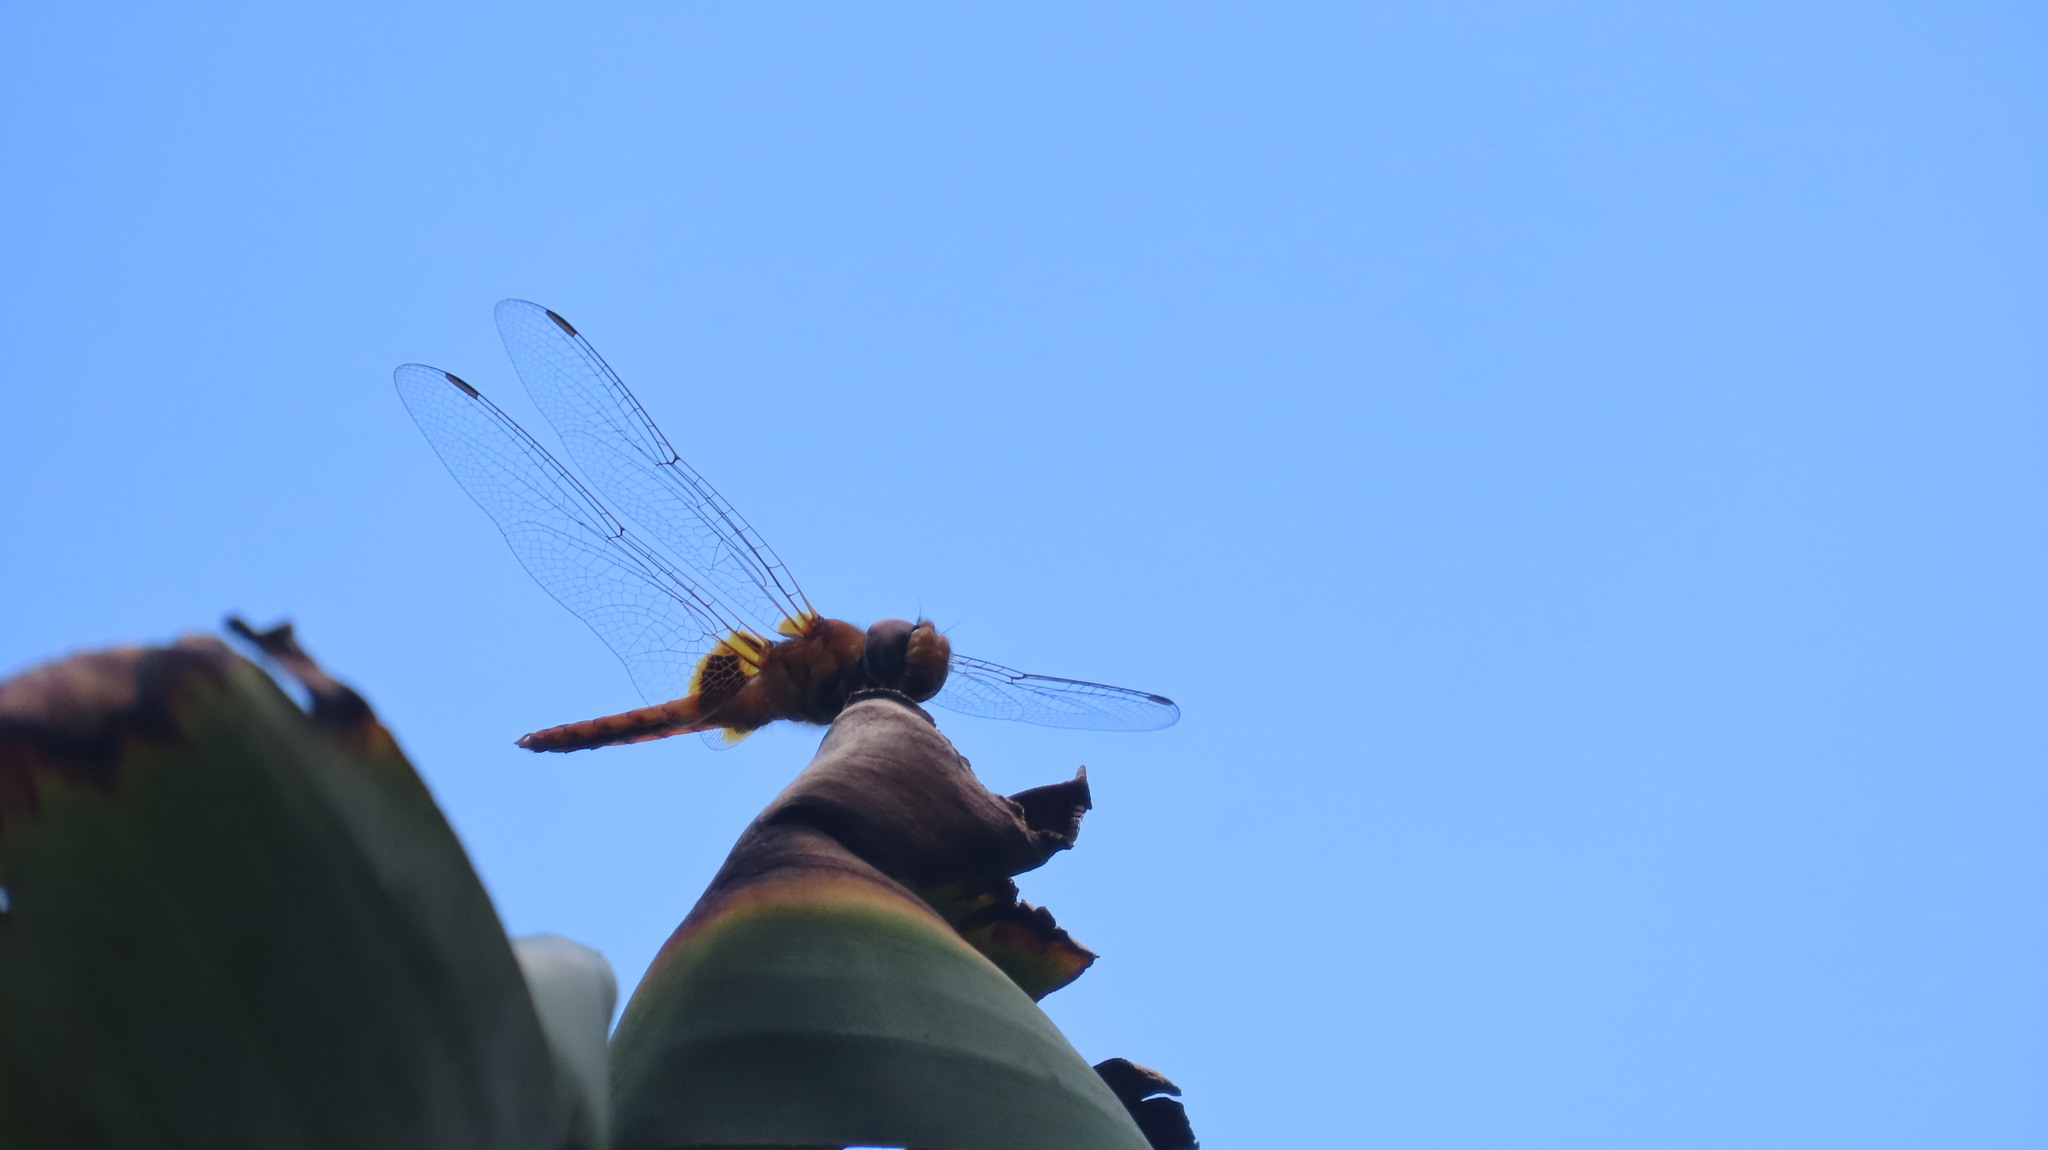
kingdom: Animalia
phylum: Arthropoda
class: Insecta
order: Odonata
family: Libellulidae
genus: Urothemis
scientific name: Urothemis signata
